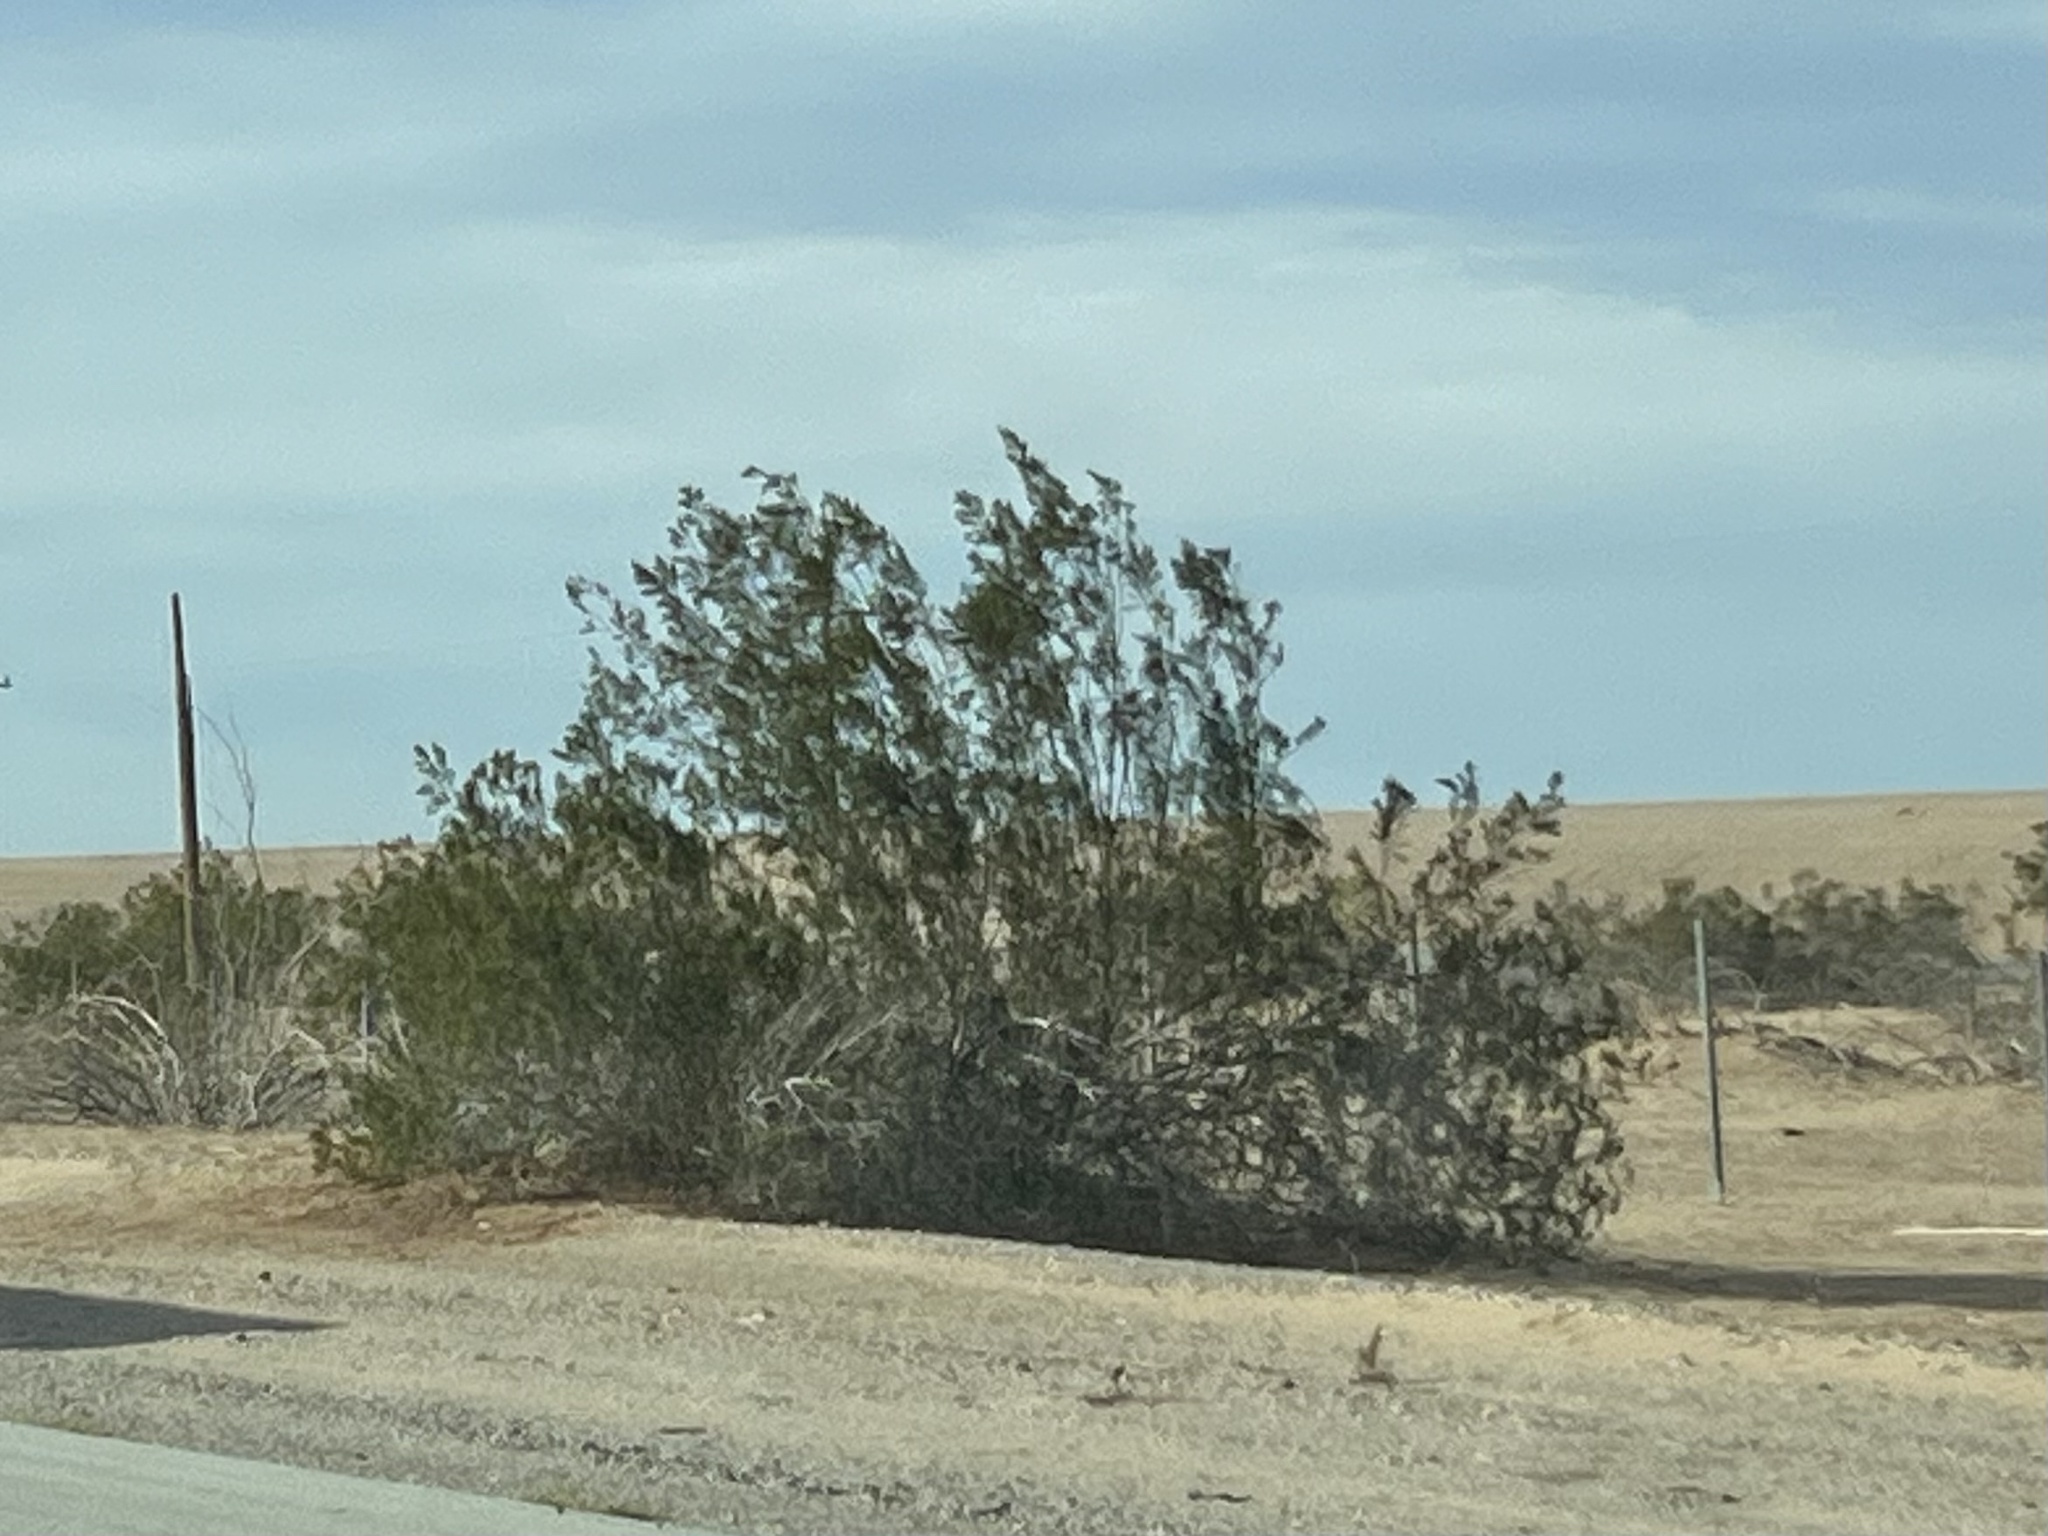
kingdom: Plantae
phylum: Tracheophyta
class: Magnoliopsida
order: Zygophyllales
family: Zygophyllaceae
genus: Larrea
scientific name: Larrea tridentata
